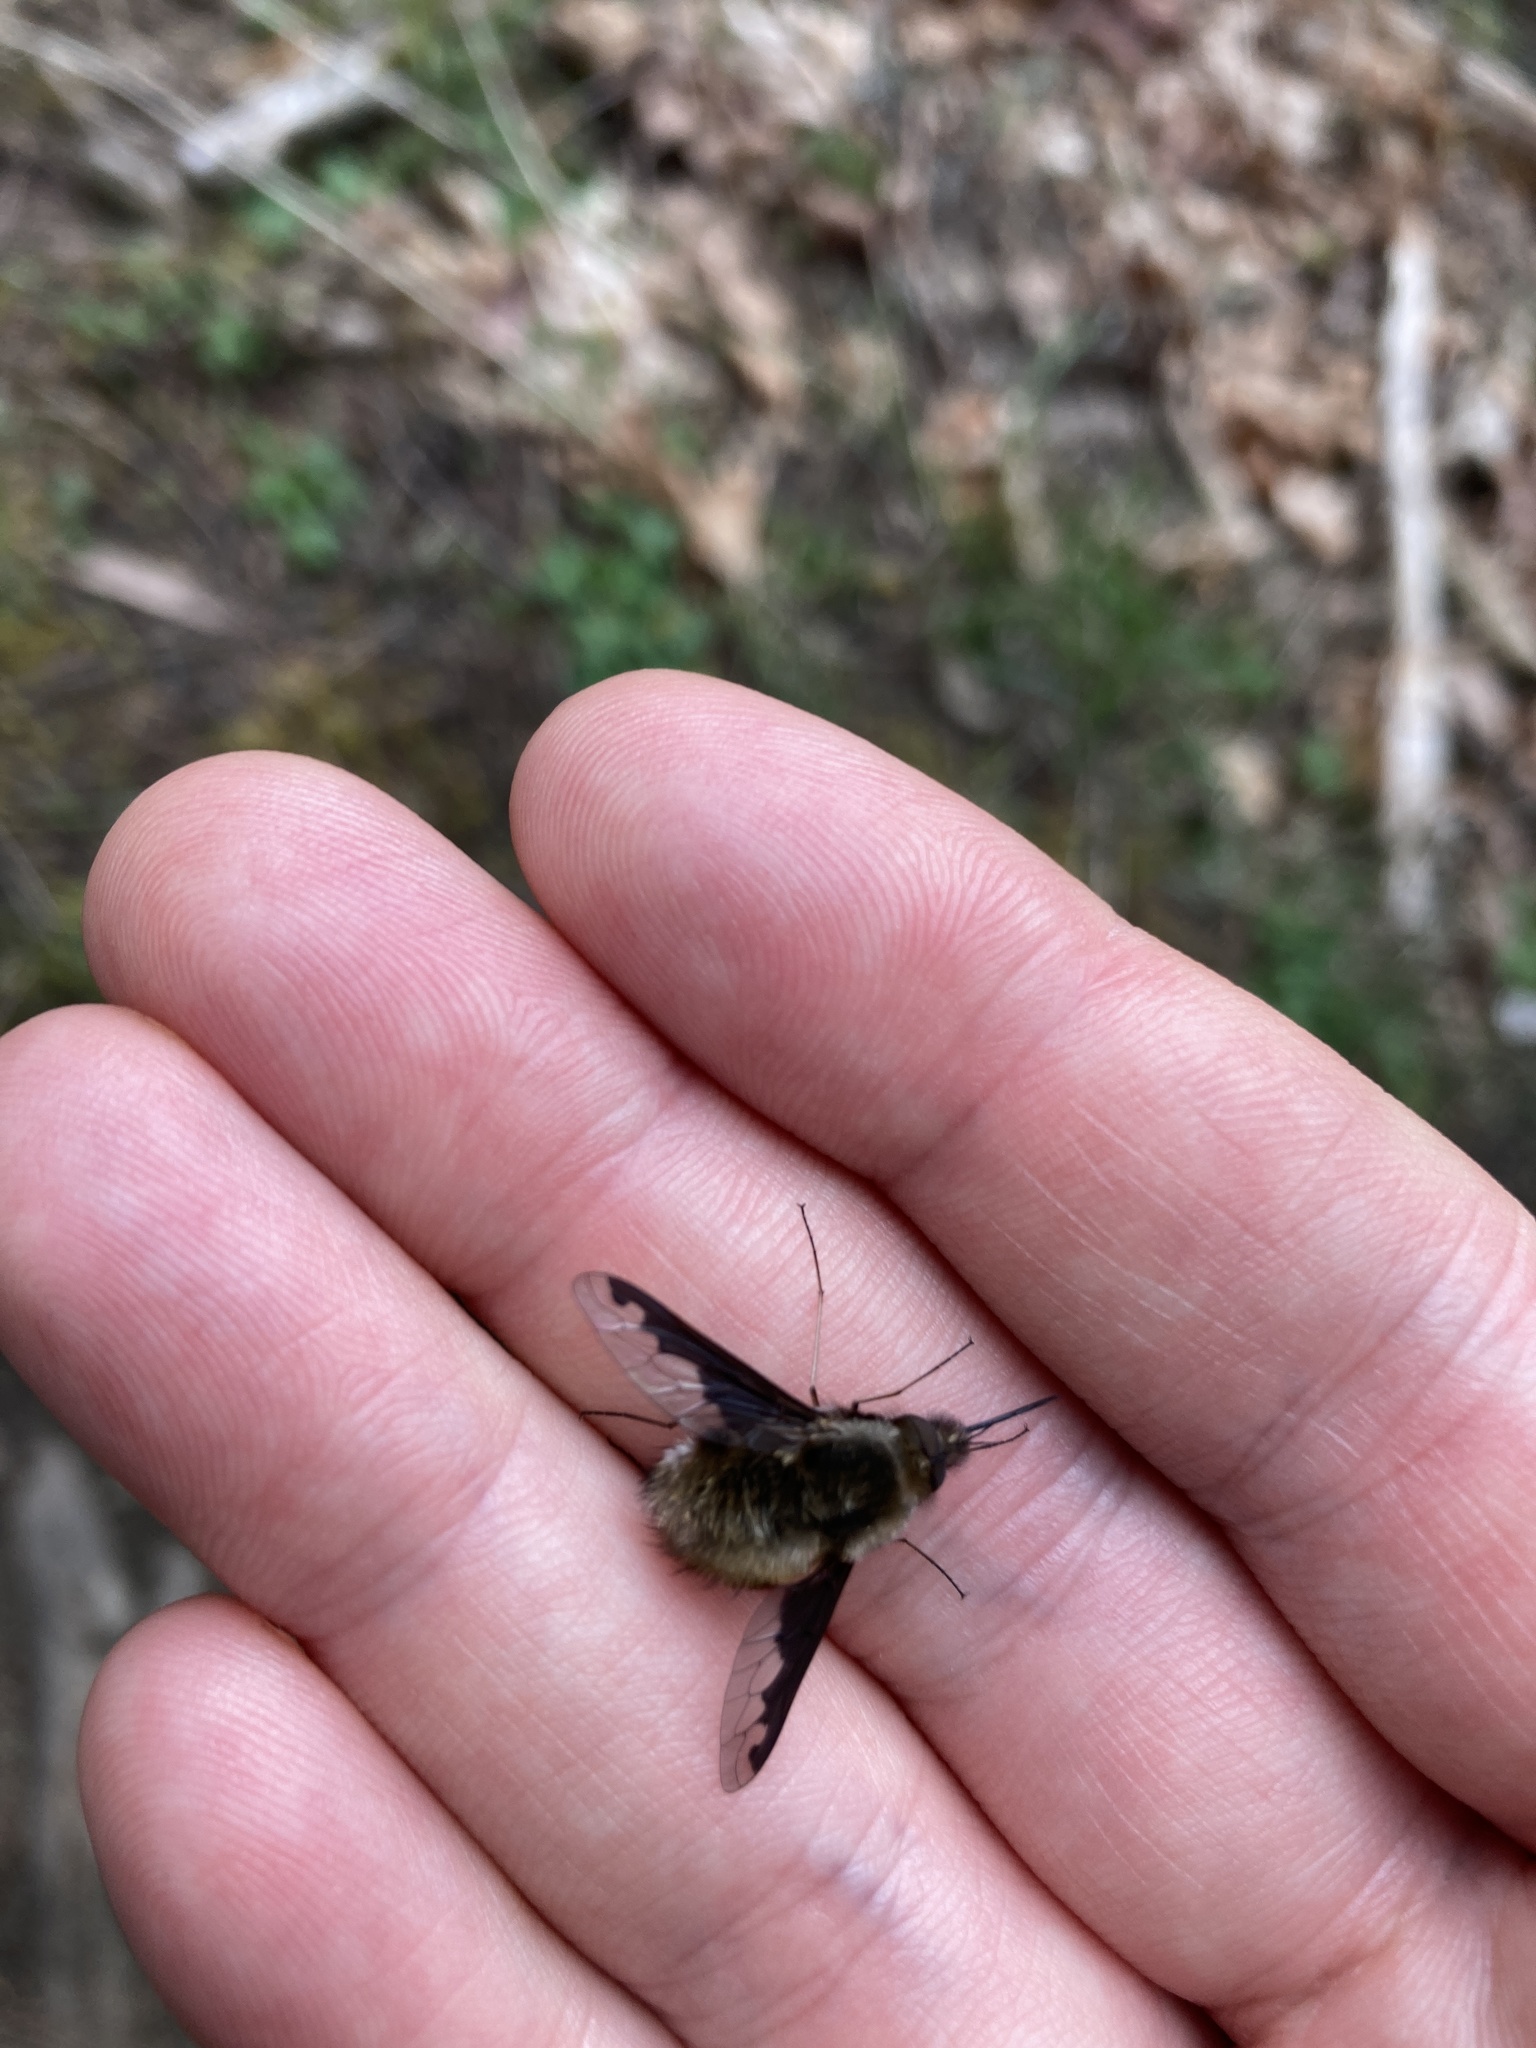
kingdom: Animalia
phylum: Arthropoda
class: Insecta
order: Diptera
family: Bombyliidae
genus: Bombylius
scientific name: Bombylius major
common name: Bee fly
